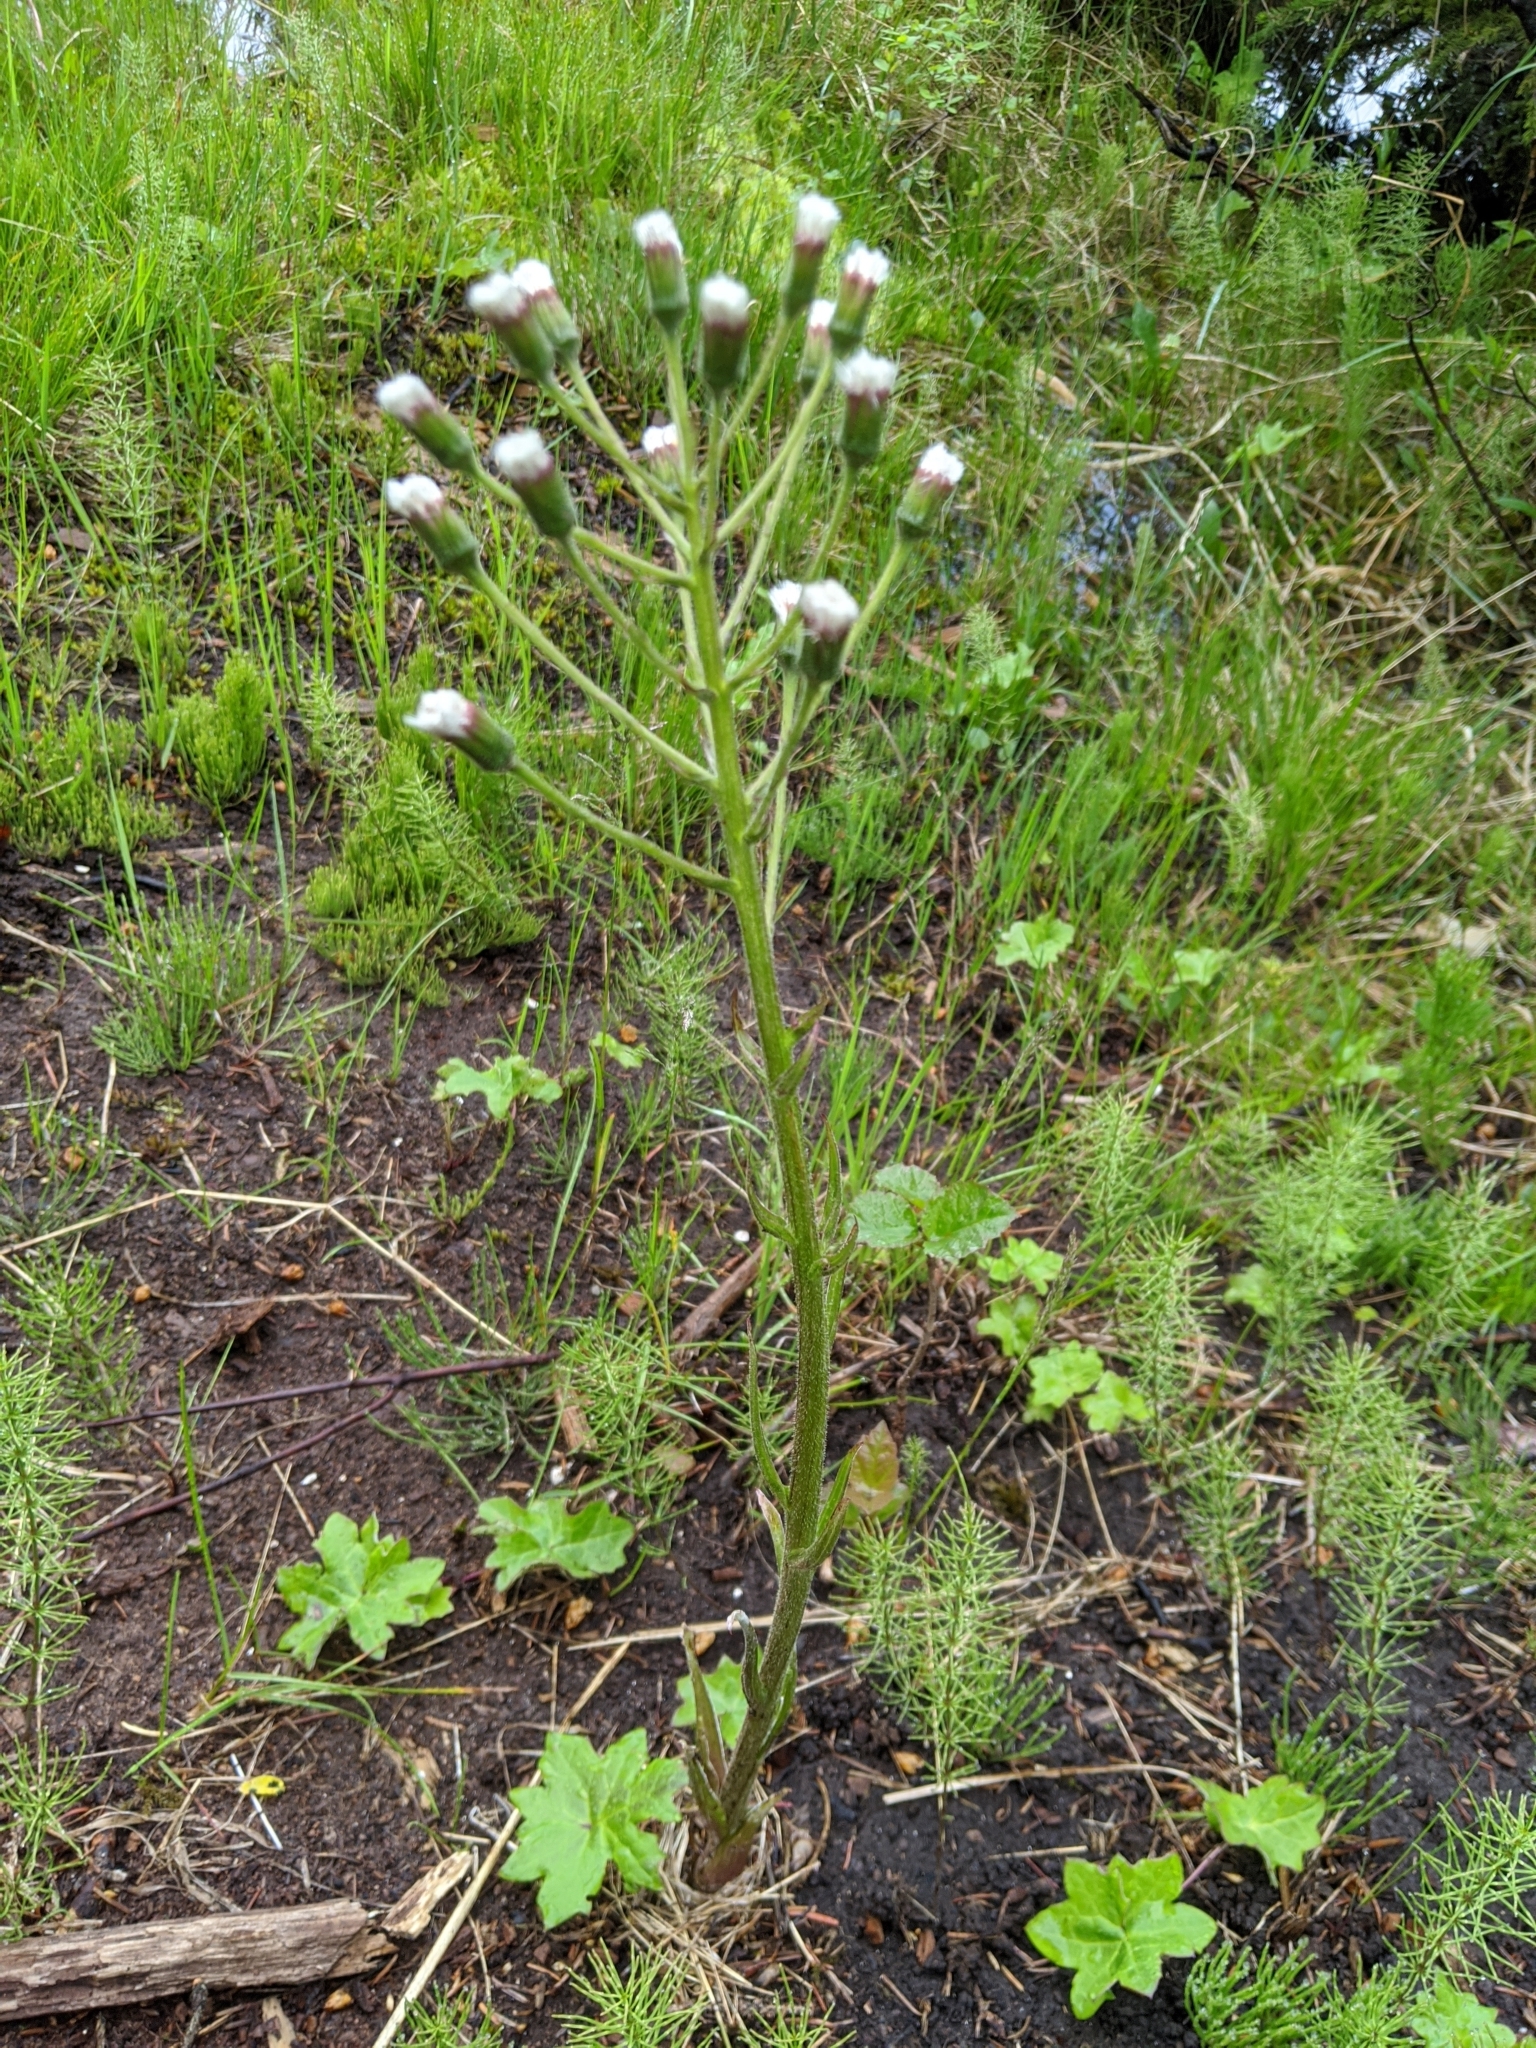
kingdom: Plantae
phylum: Tracheophyta
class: Magnoliopsida
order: Asterales
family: Asteraceae
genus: Petasites
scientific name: Petasites frigidus
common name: Arctic butterbur
